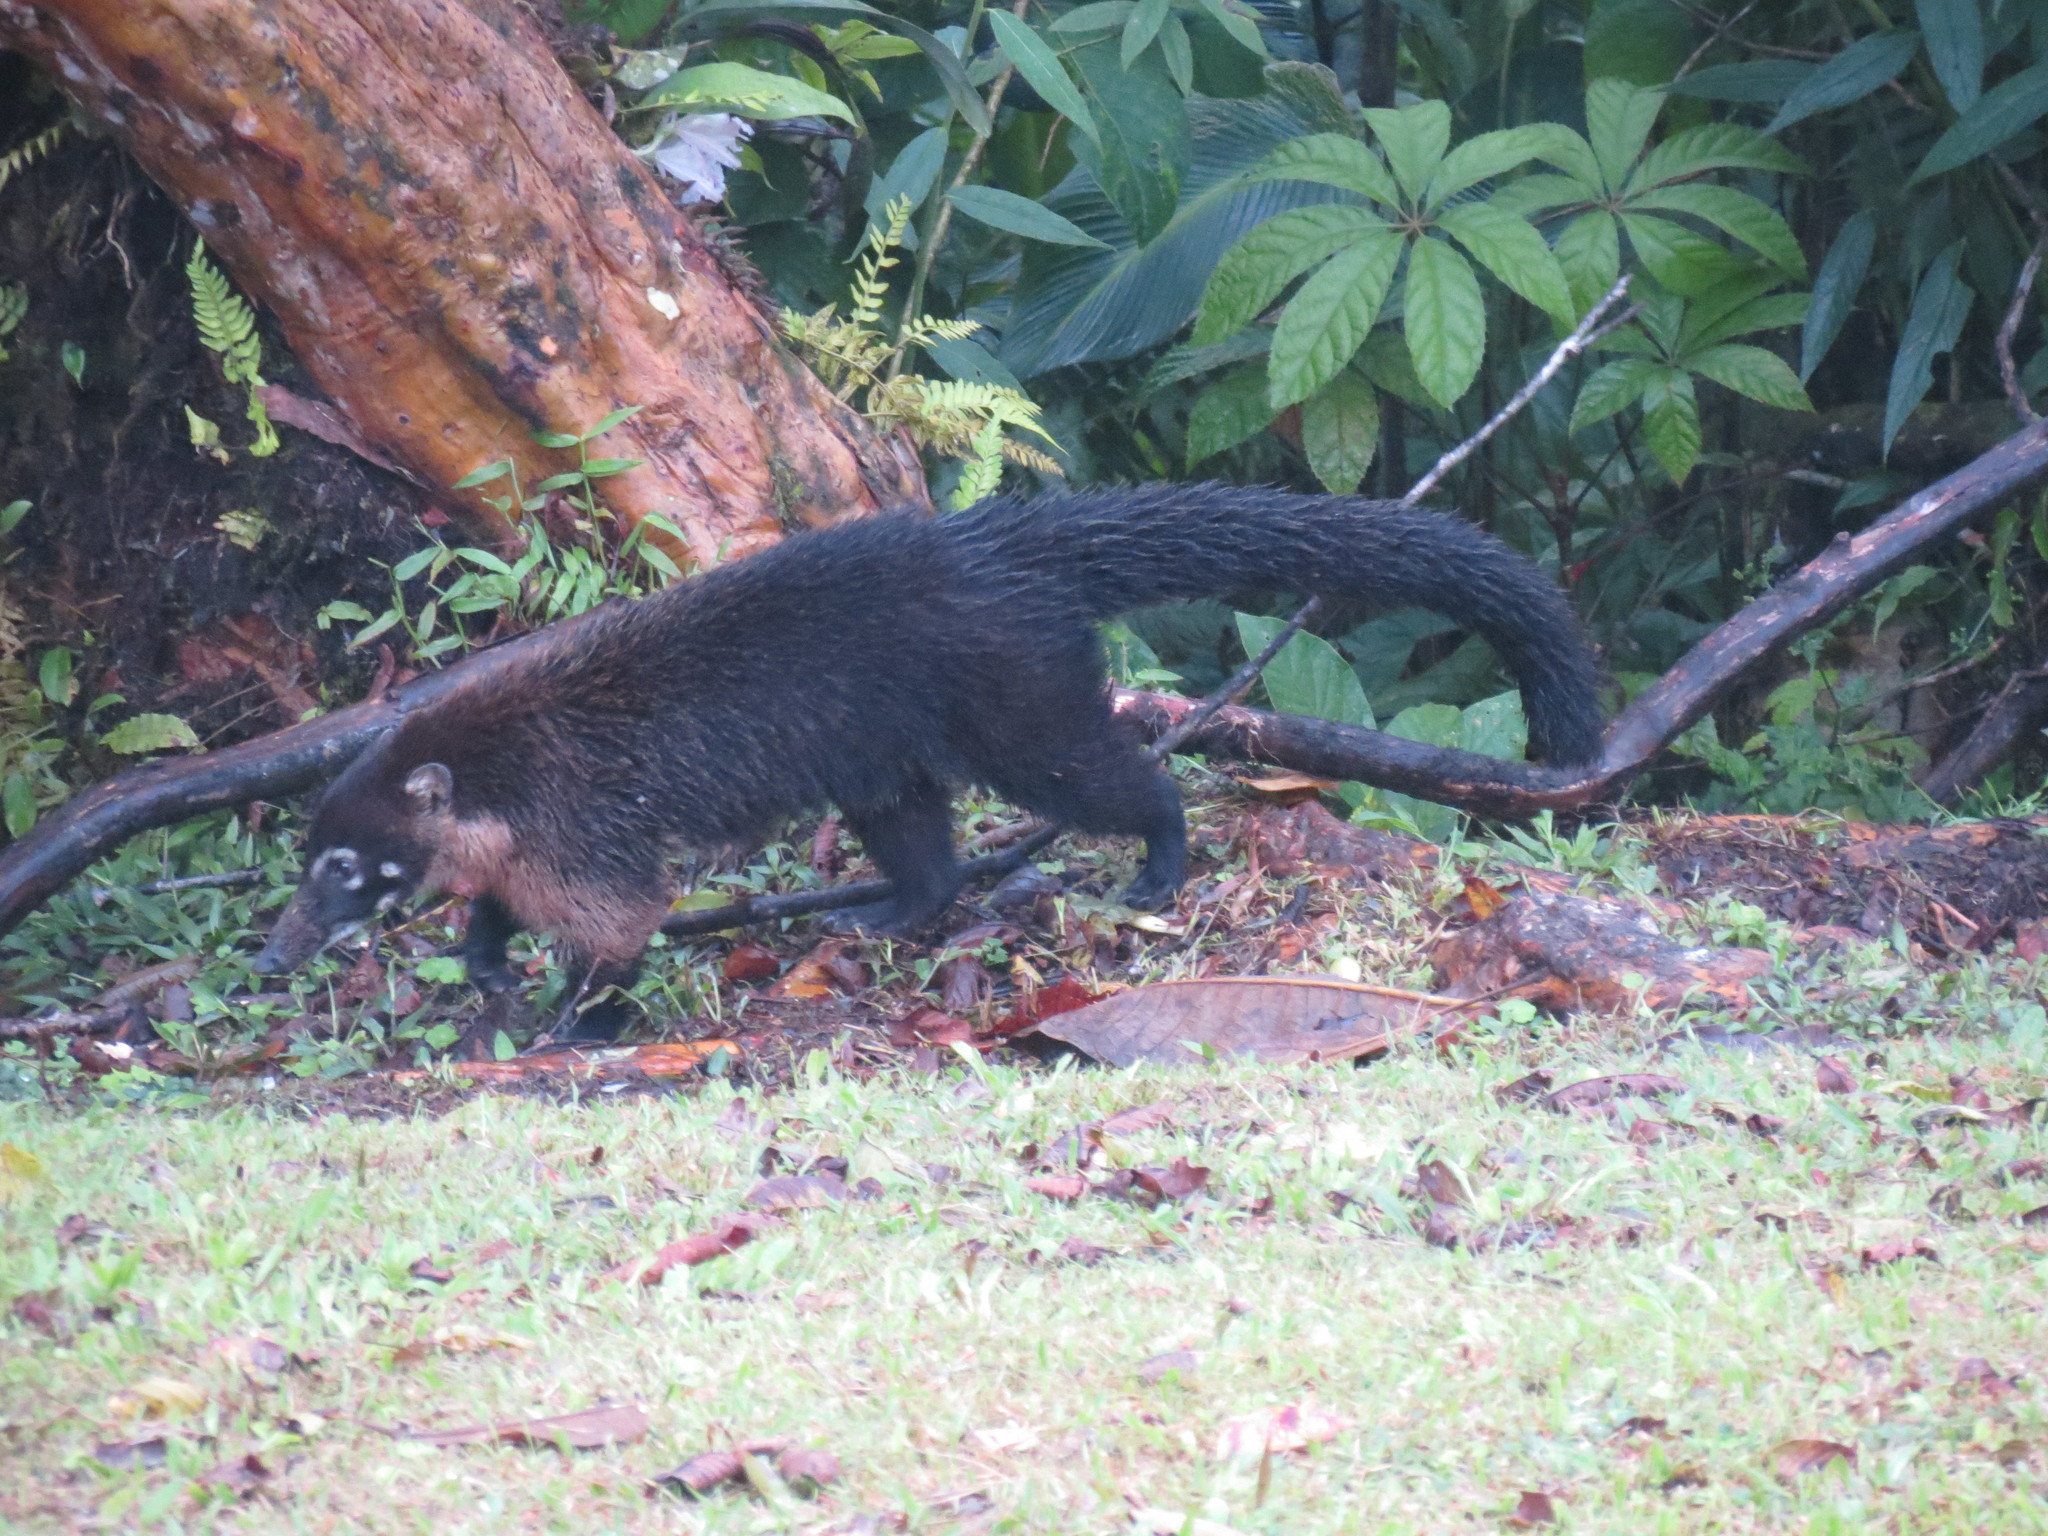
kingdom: Animalia
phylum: Chordata
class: Mammalia
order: Carnivora
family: Procyonidae
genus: Nasua
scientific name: Nasua narica
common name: White-nosed coati
